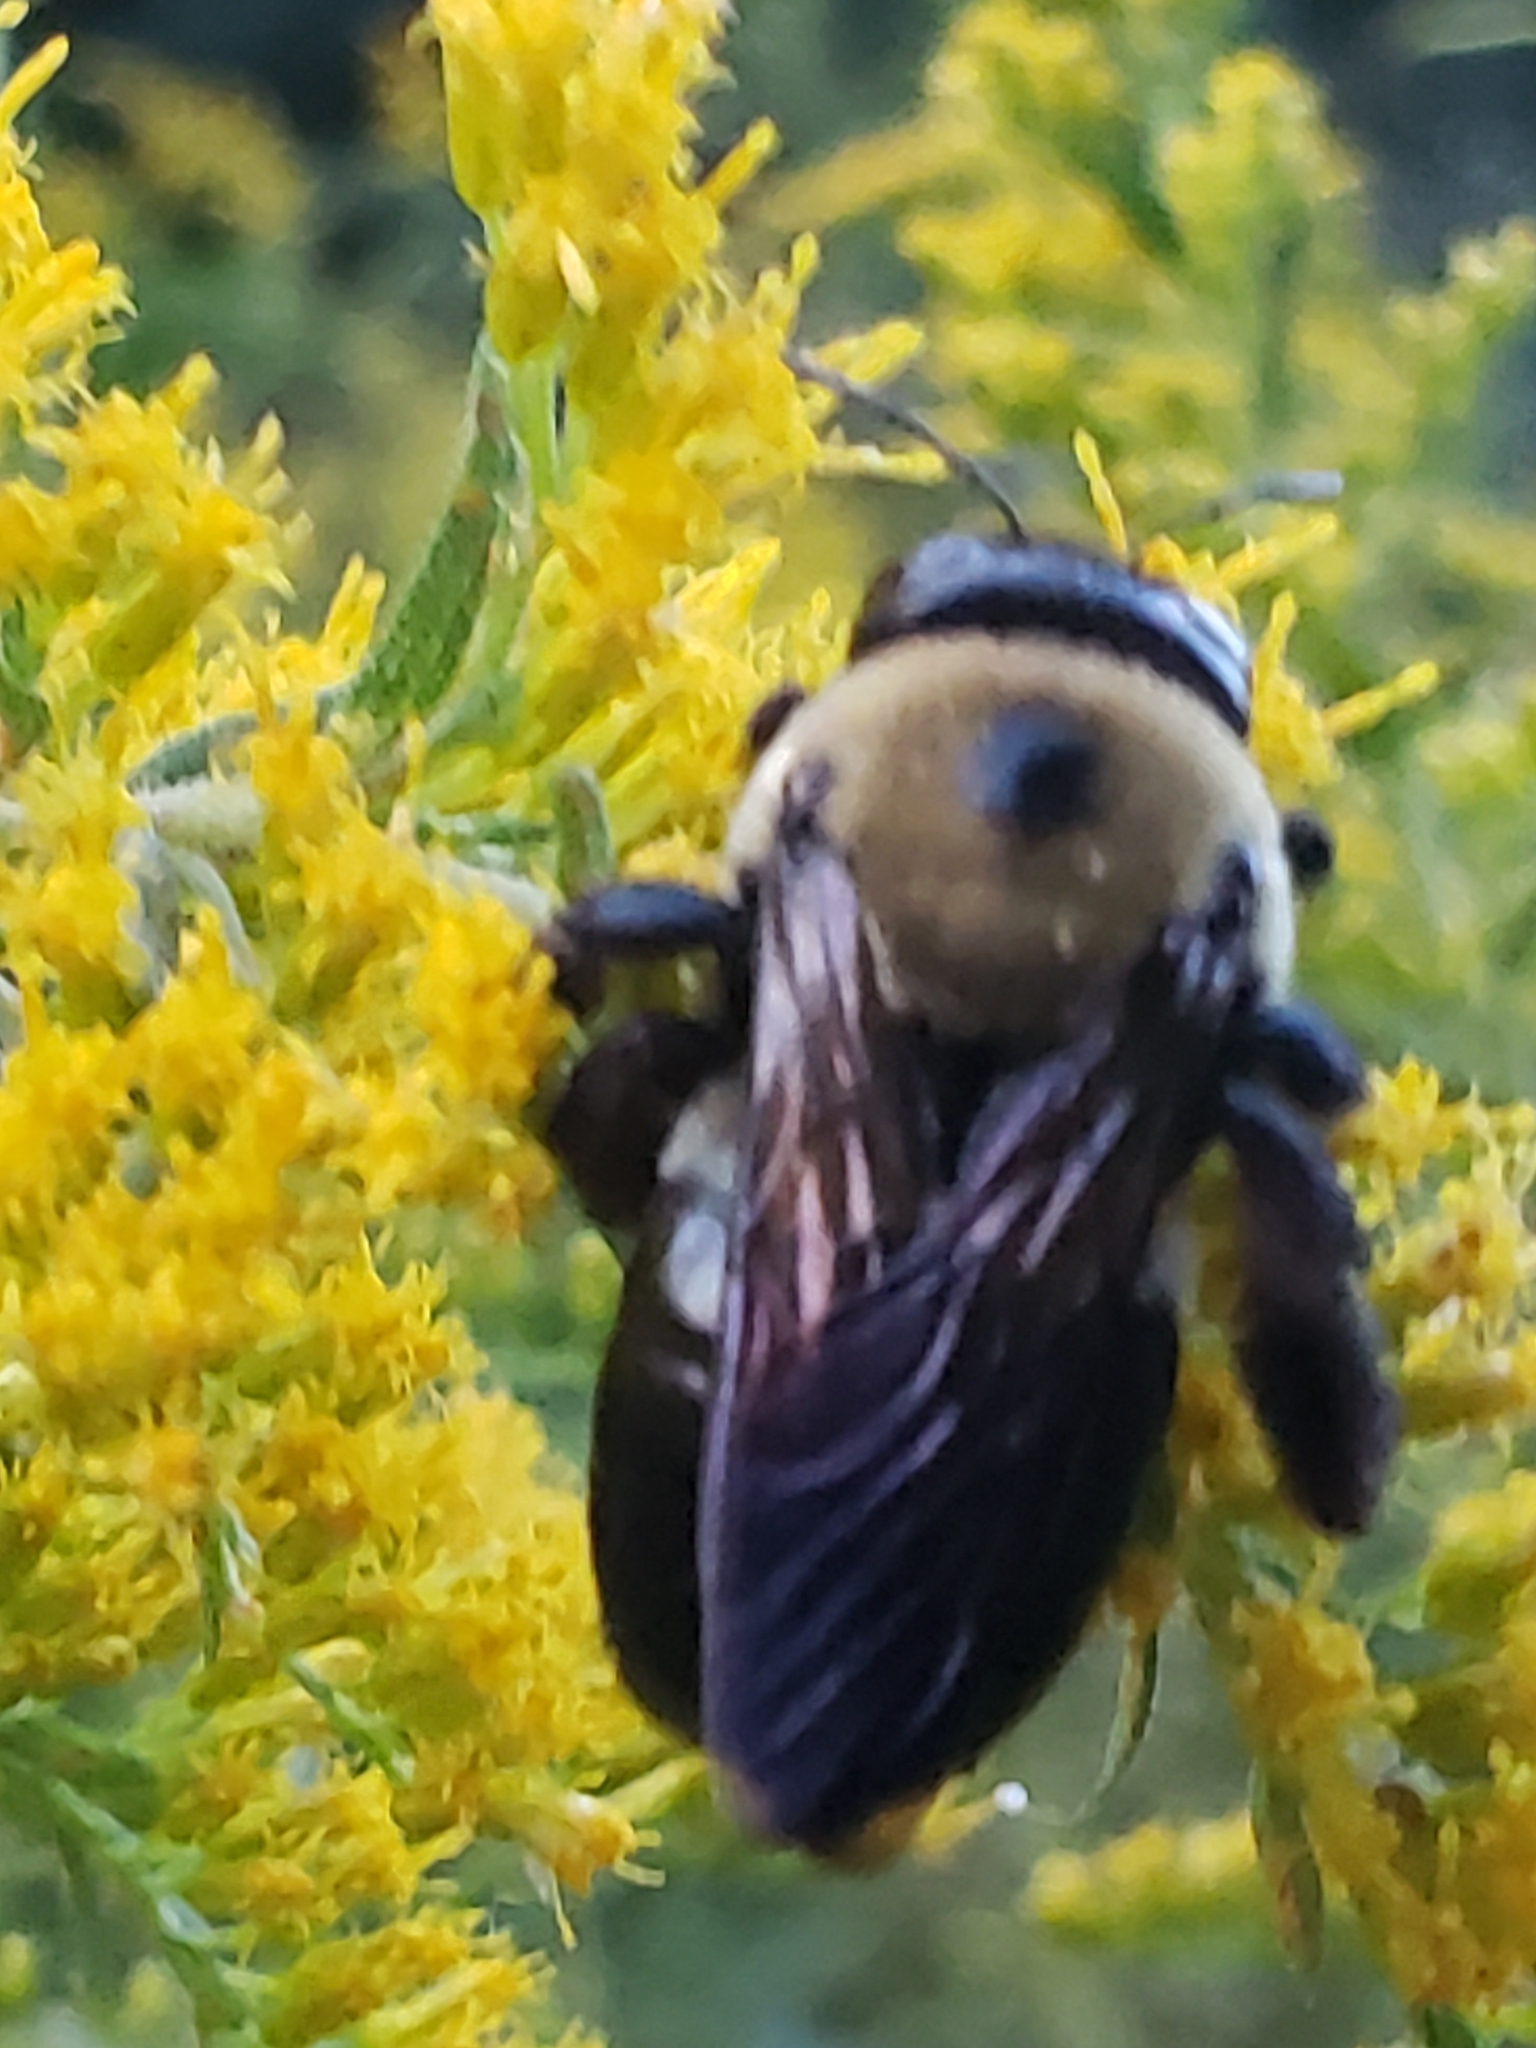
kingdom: Animalia
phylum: Arthropoda
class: Insecta
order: Hymenoptera
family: Apidae
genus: Xylocopa
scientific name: Xylocopa virginica
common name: Carpenter bee
